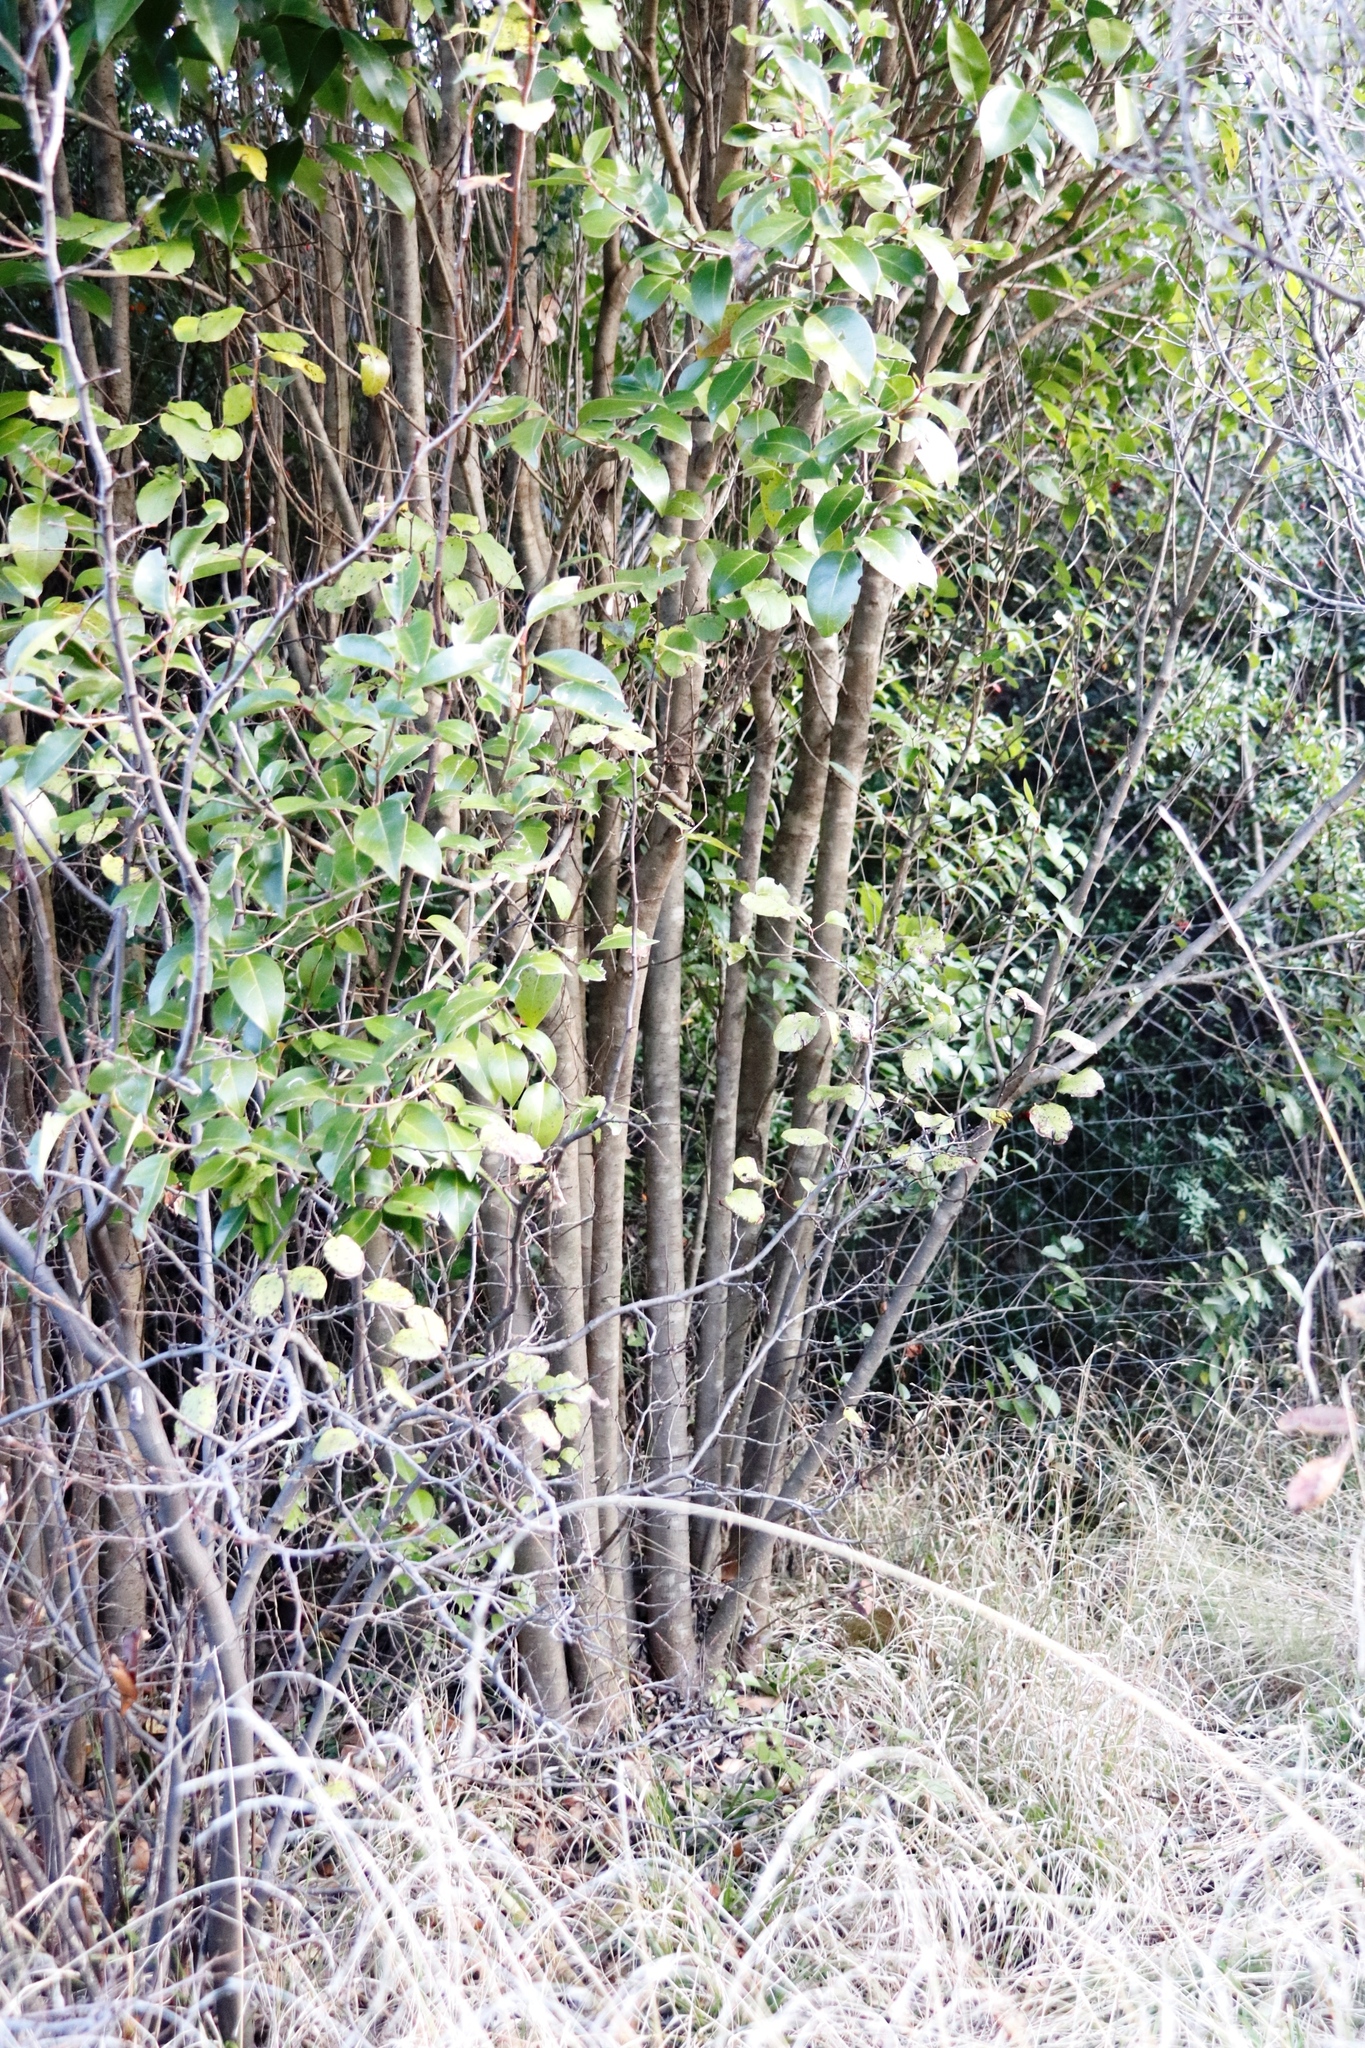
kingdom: Plantae
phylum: Tracheophyta
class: Magnoliopsida
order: Lamiales
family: Oleaceae
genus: Ligustrum
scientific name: Ligustrum lucidum
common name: Glossy privet
